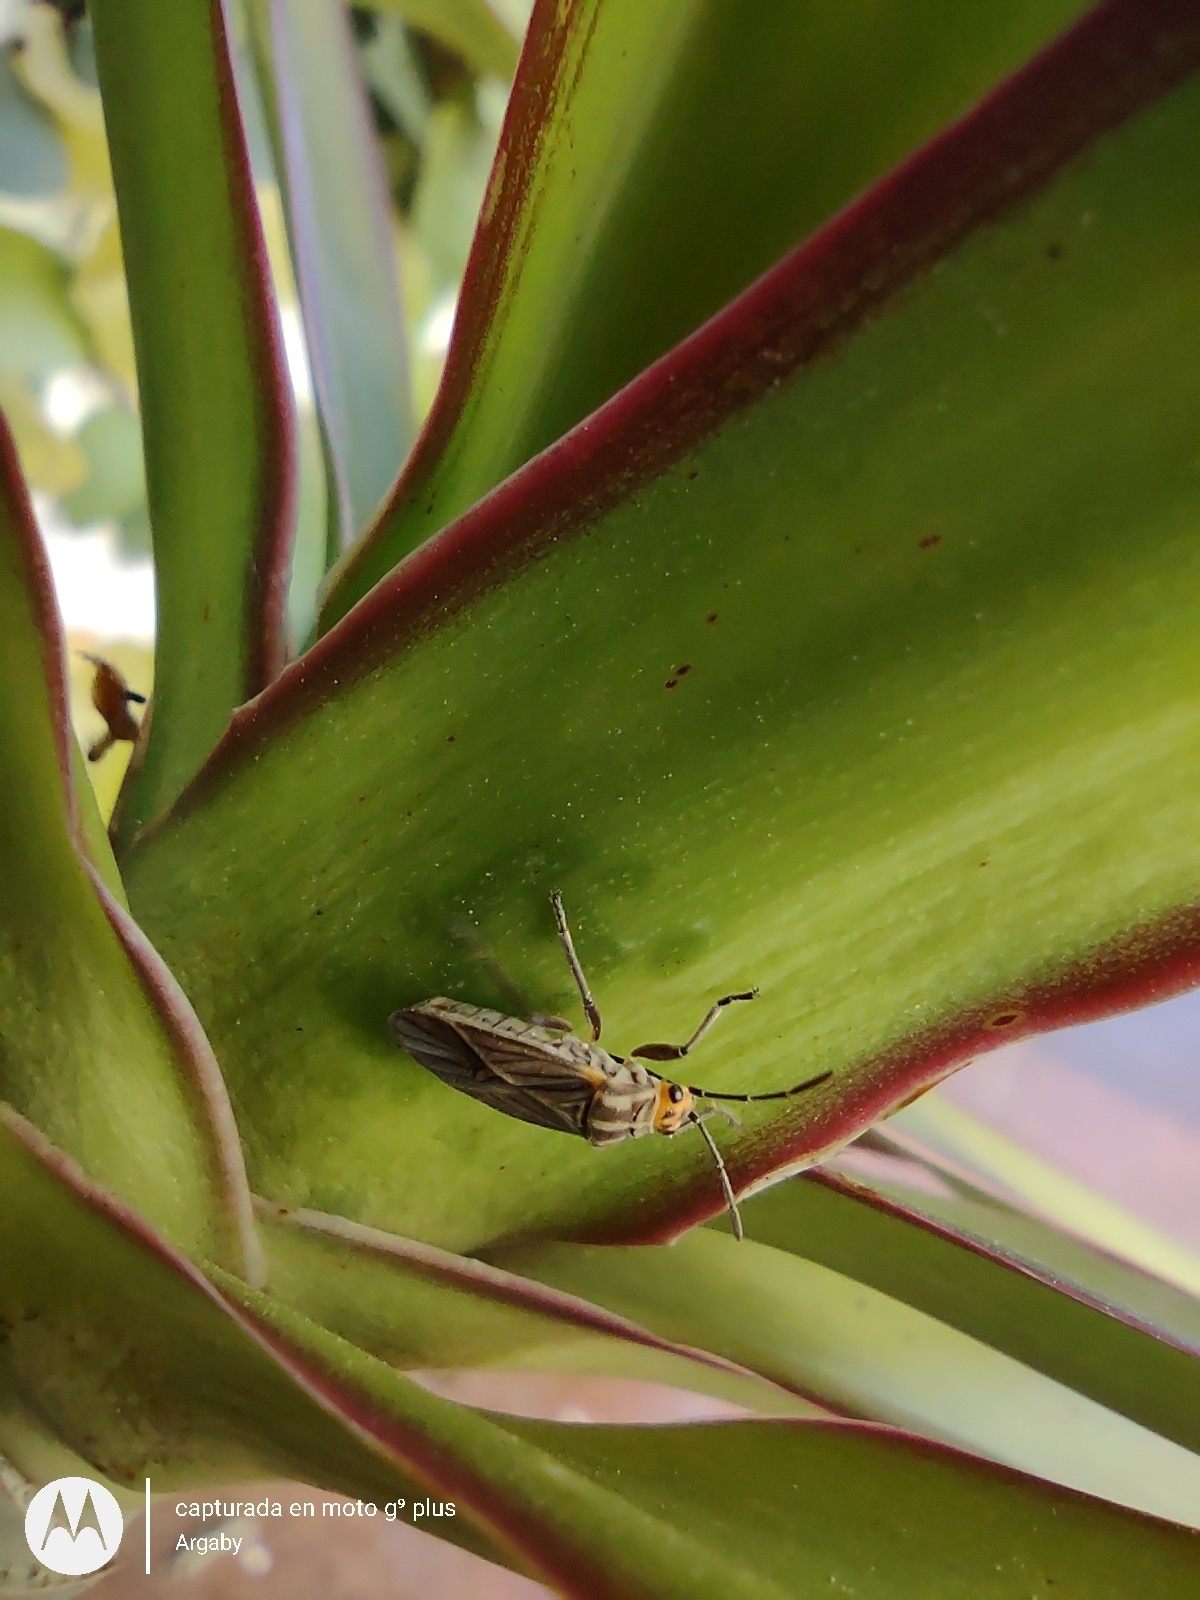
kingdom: Animalia
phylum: Arthropoda
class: Insecta
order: Hemiptera
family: Lygaeidae
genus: Torvochrimnus
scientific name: Torvochrimnus poeyi
